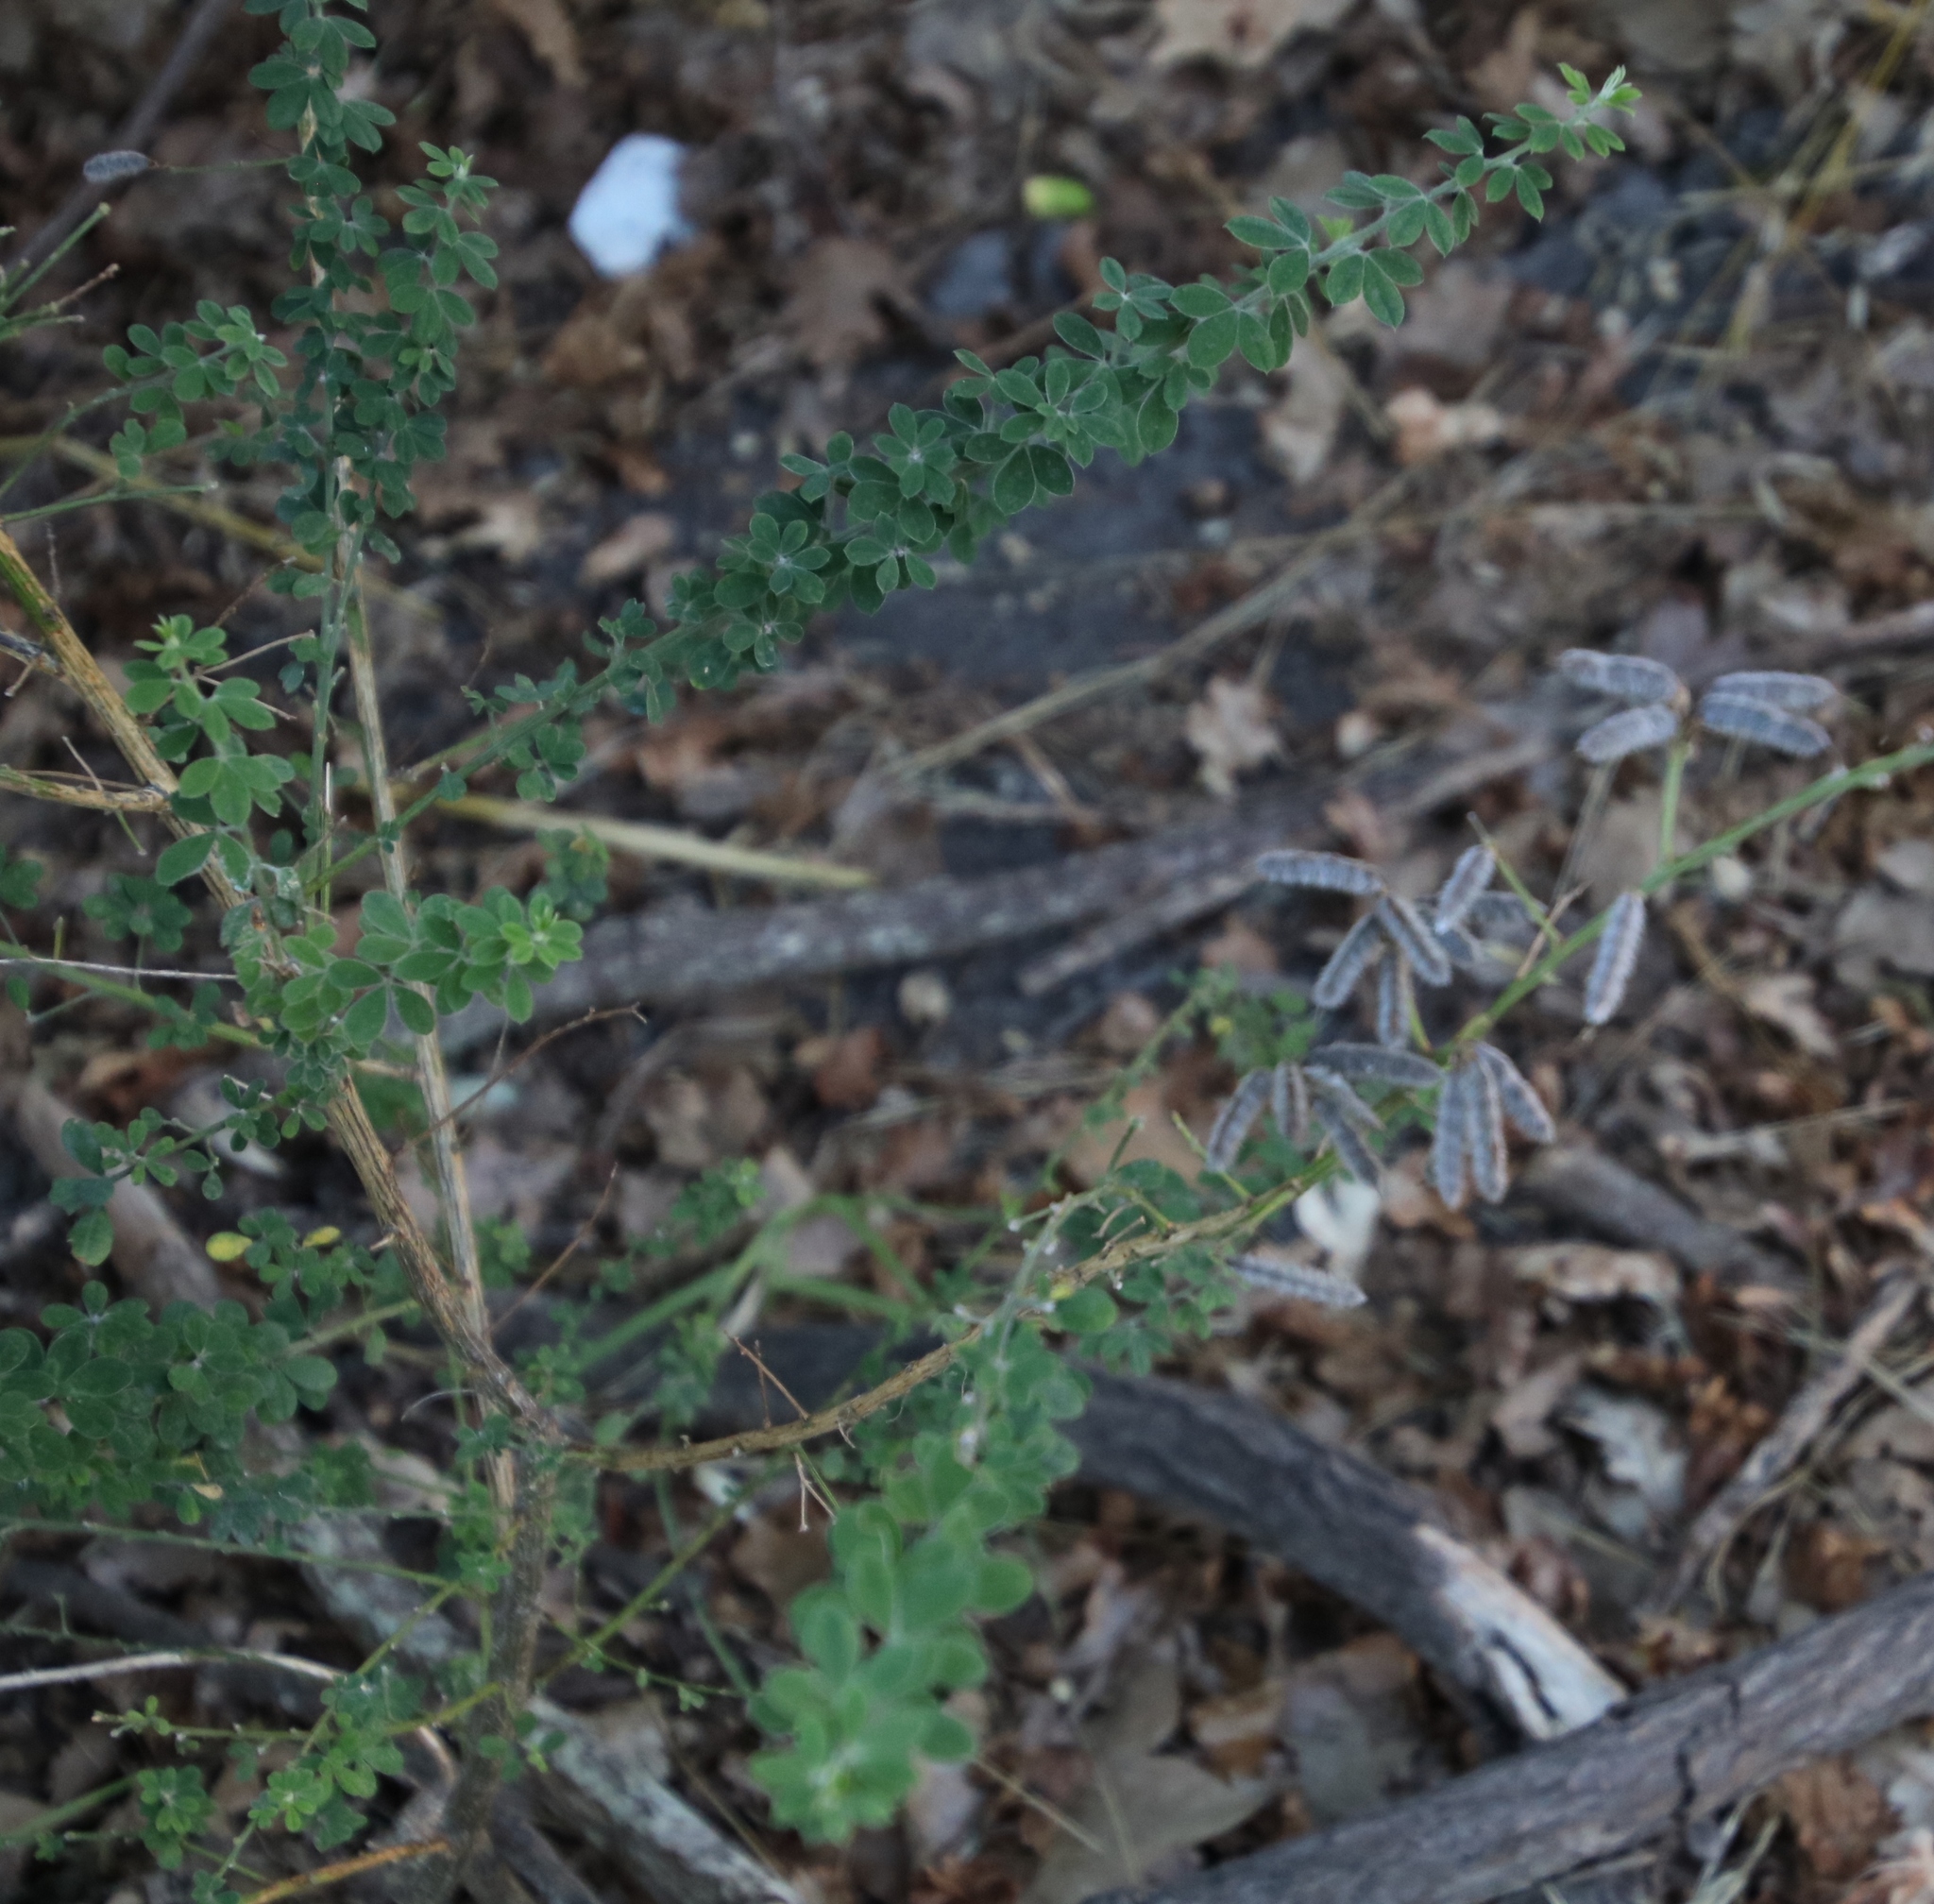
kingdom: Plantae
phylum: Tracheophyta
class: Magnoliopsida
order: Fabales
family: Fabaceae
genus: Genista
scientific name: Genista monspessulana
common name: Montpellier broom
